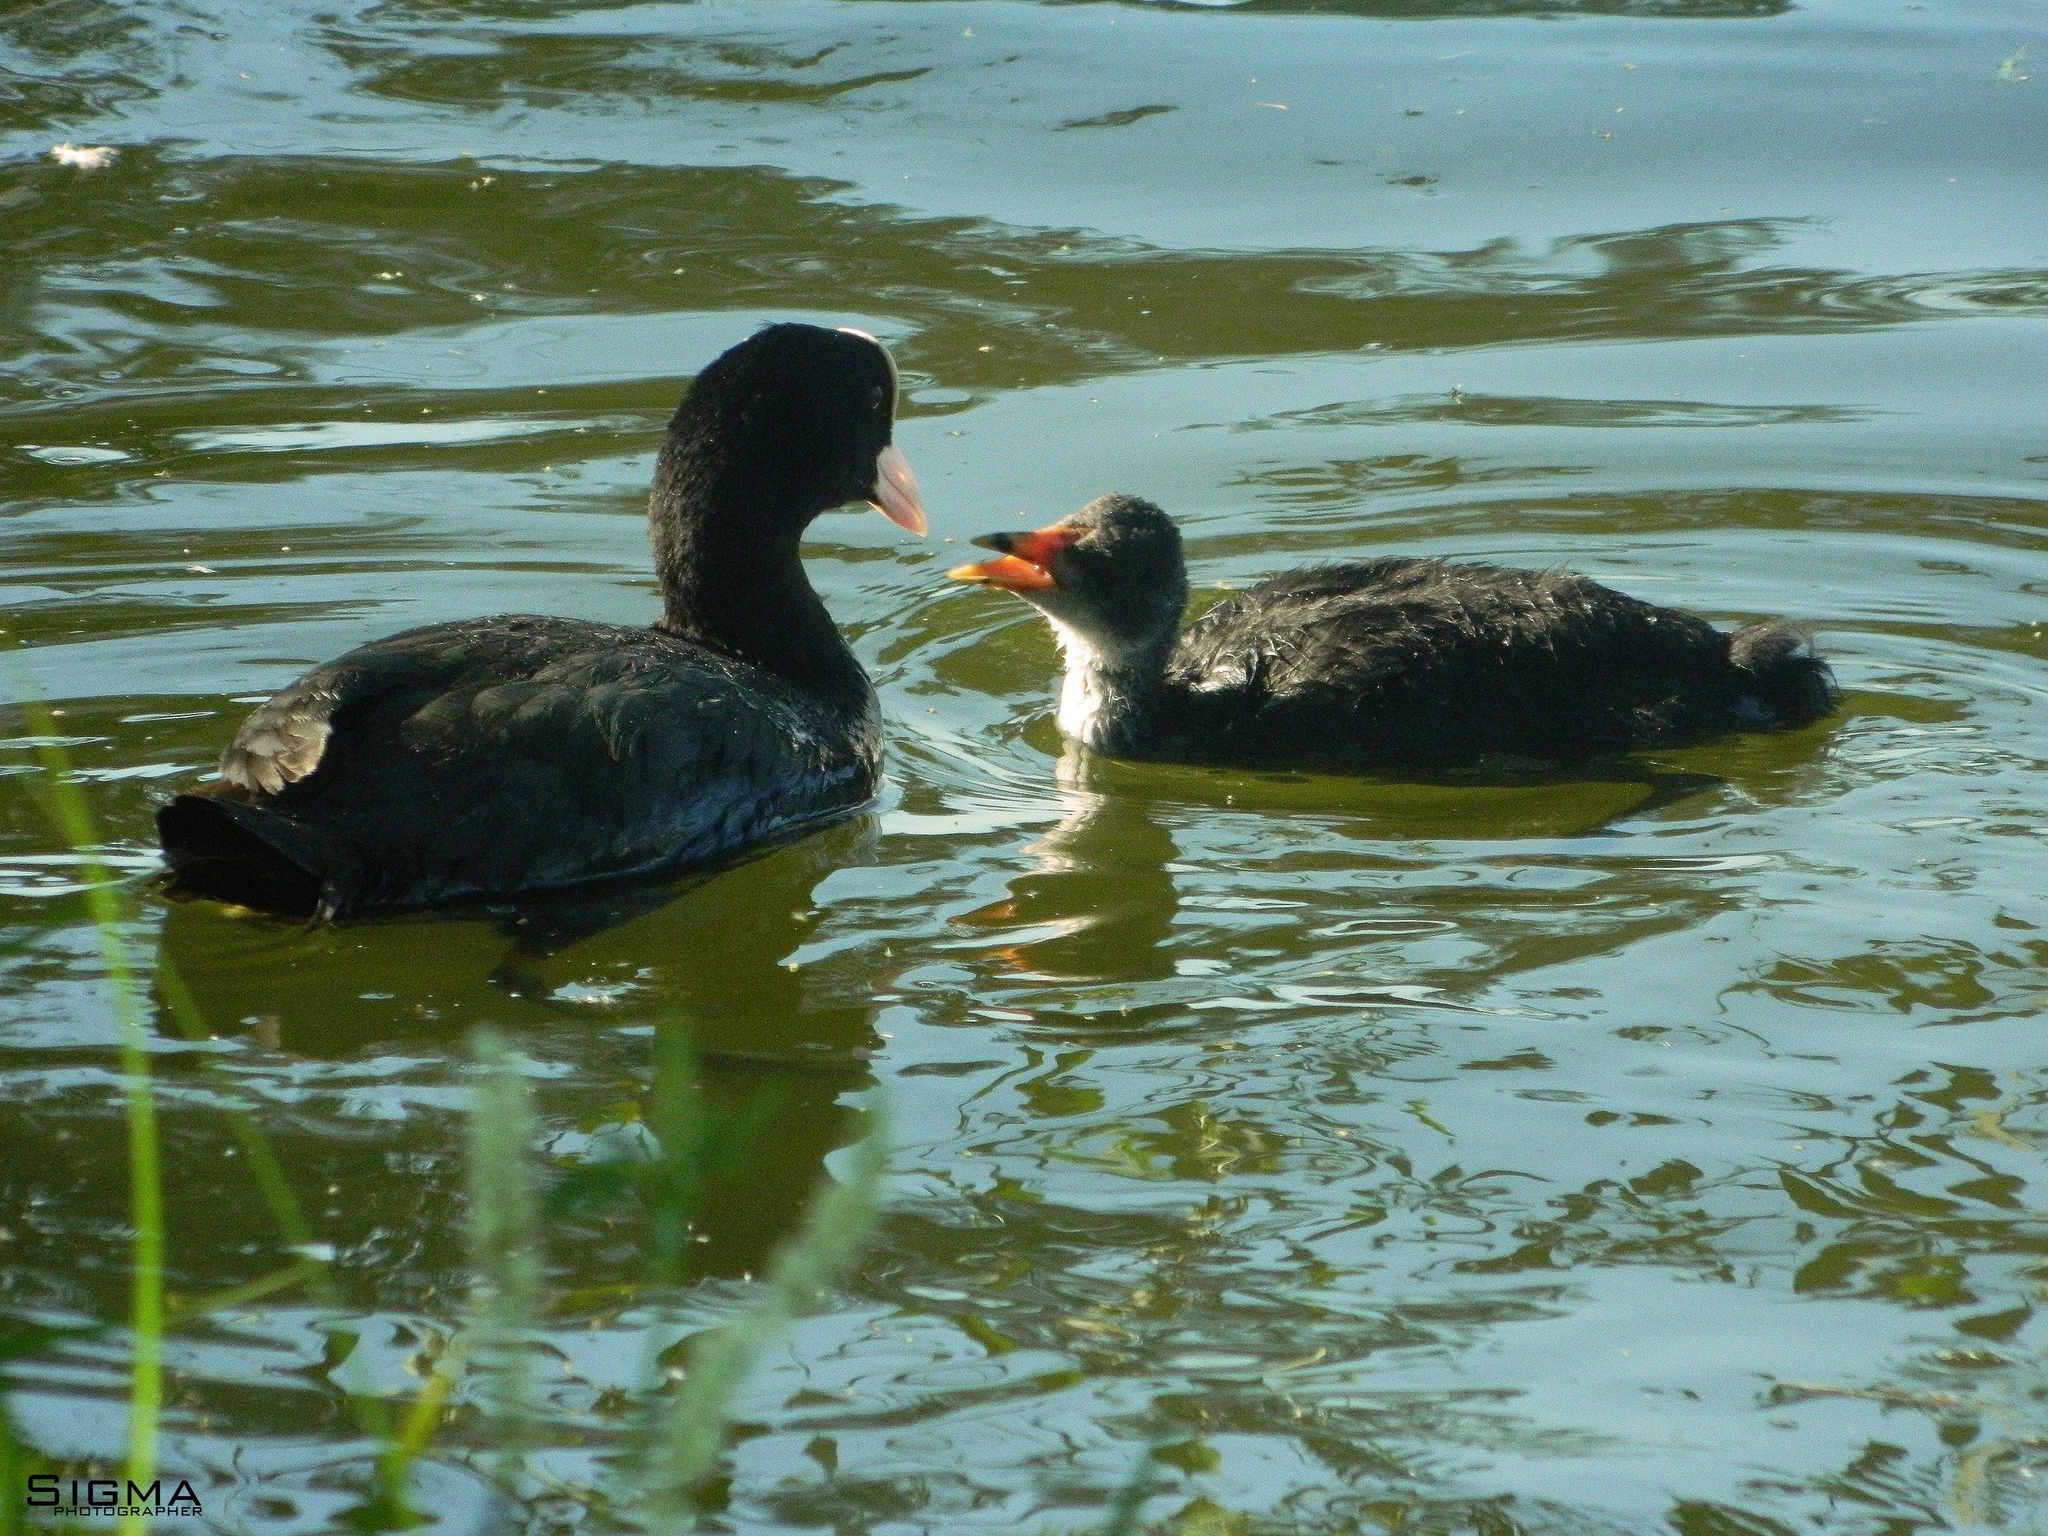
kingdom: Animalia
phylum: Chordata
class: Aves
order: Gruiformes
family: Rallidae
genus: Fulica
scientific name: Fulica atra
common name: Eurasian coot
